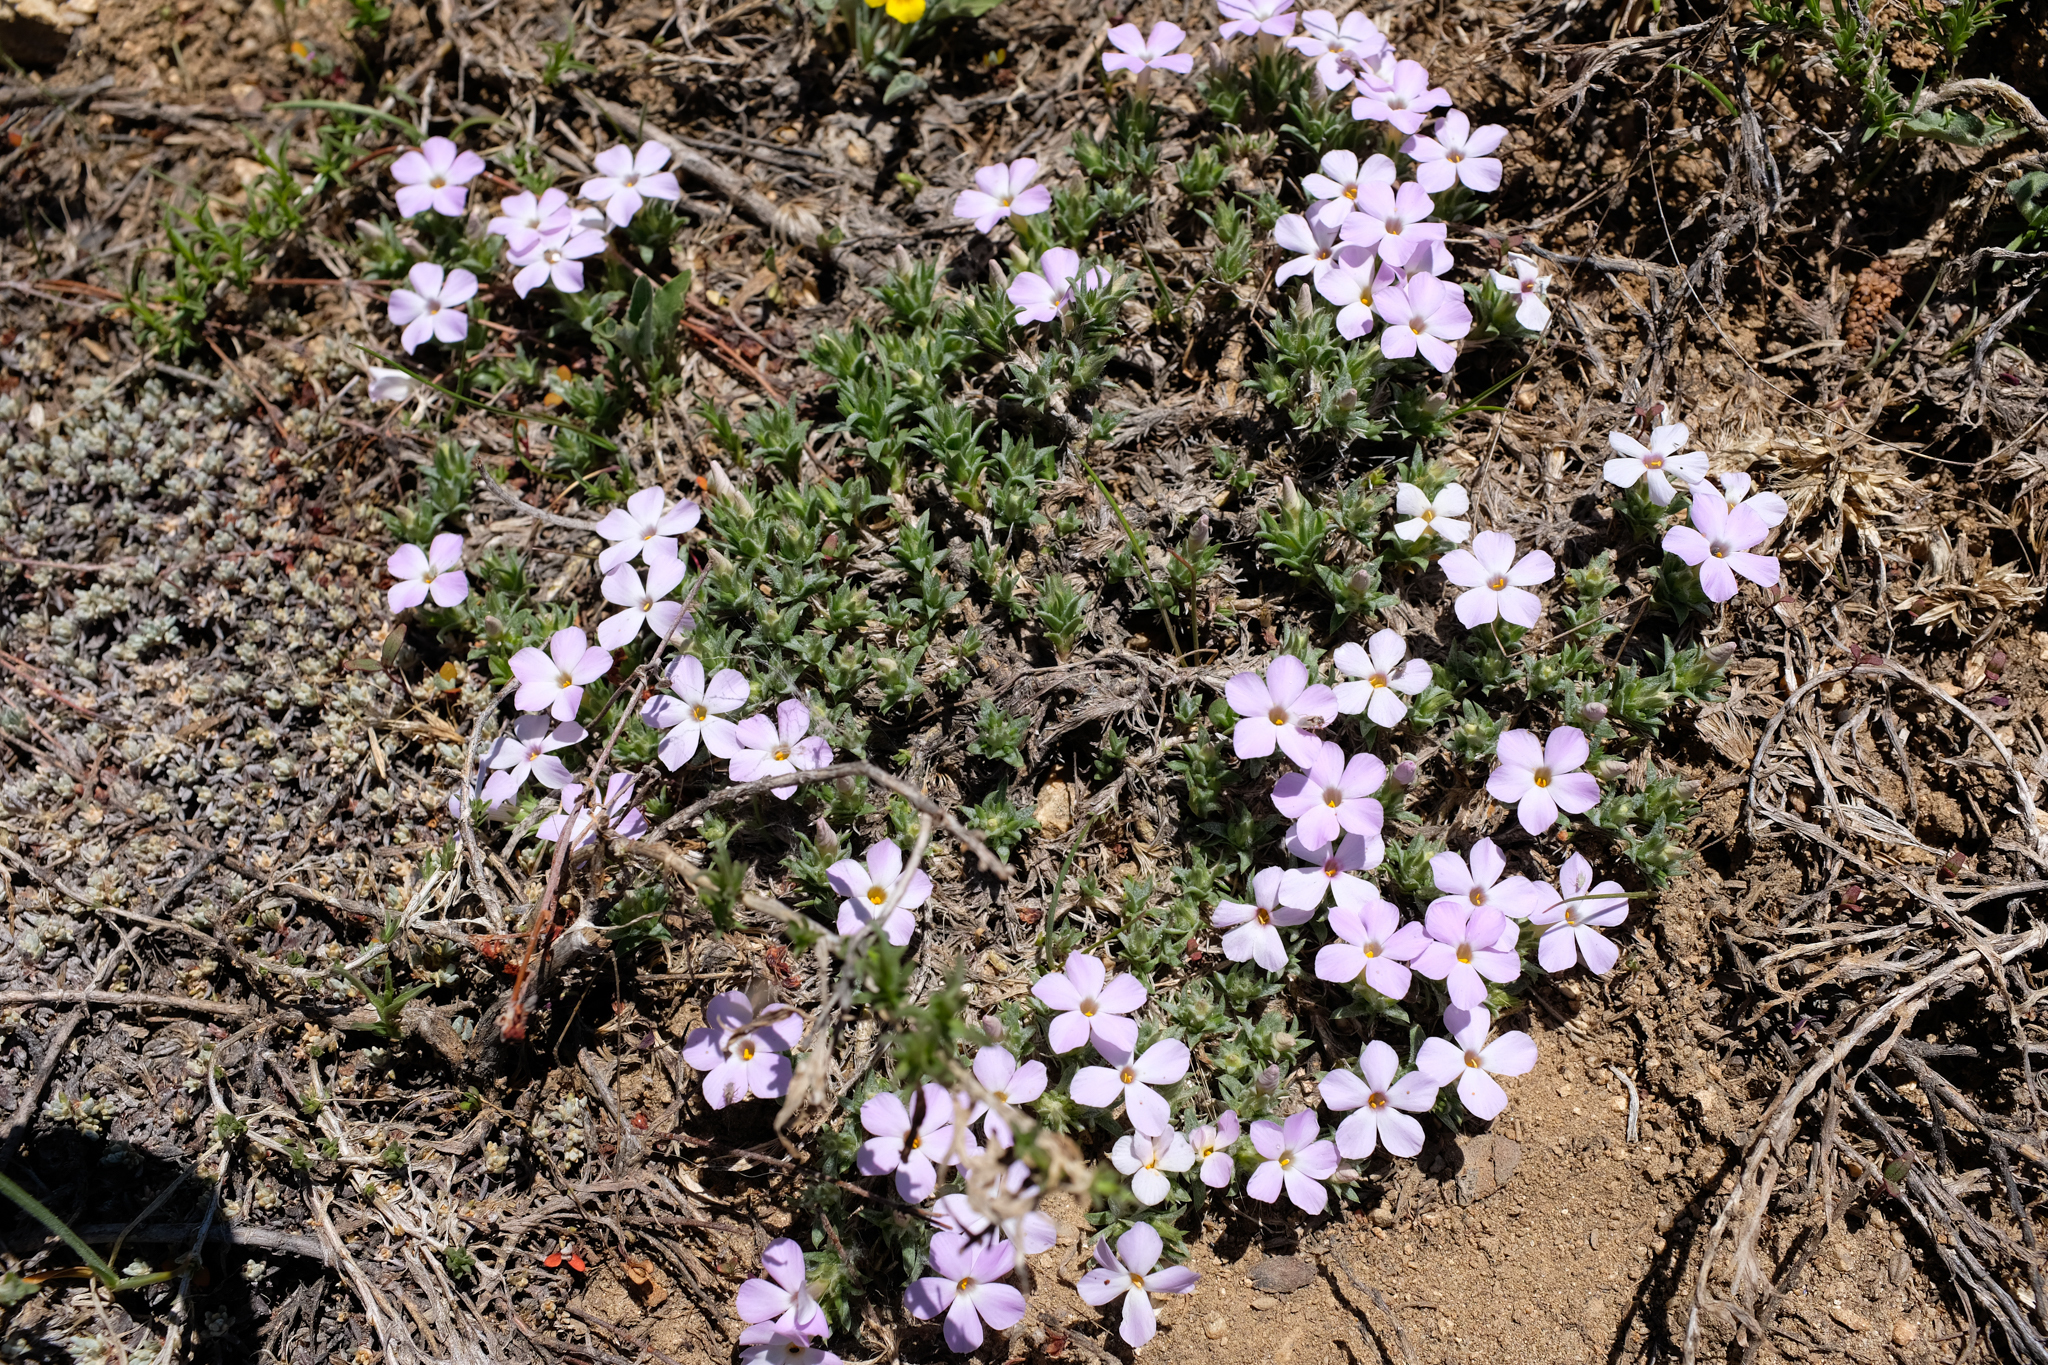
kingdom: Plantae
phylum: Tracheophyta
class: Magnoliopsida
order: Ericales
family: Polemoniaceae
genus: Phlox
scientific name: Phlox diffusa
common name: Mat phlox
